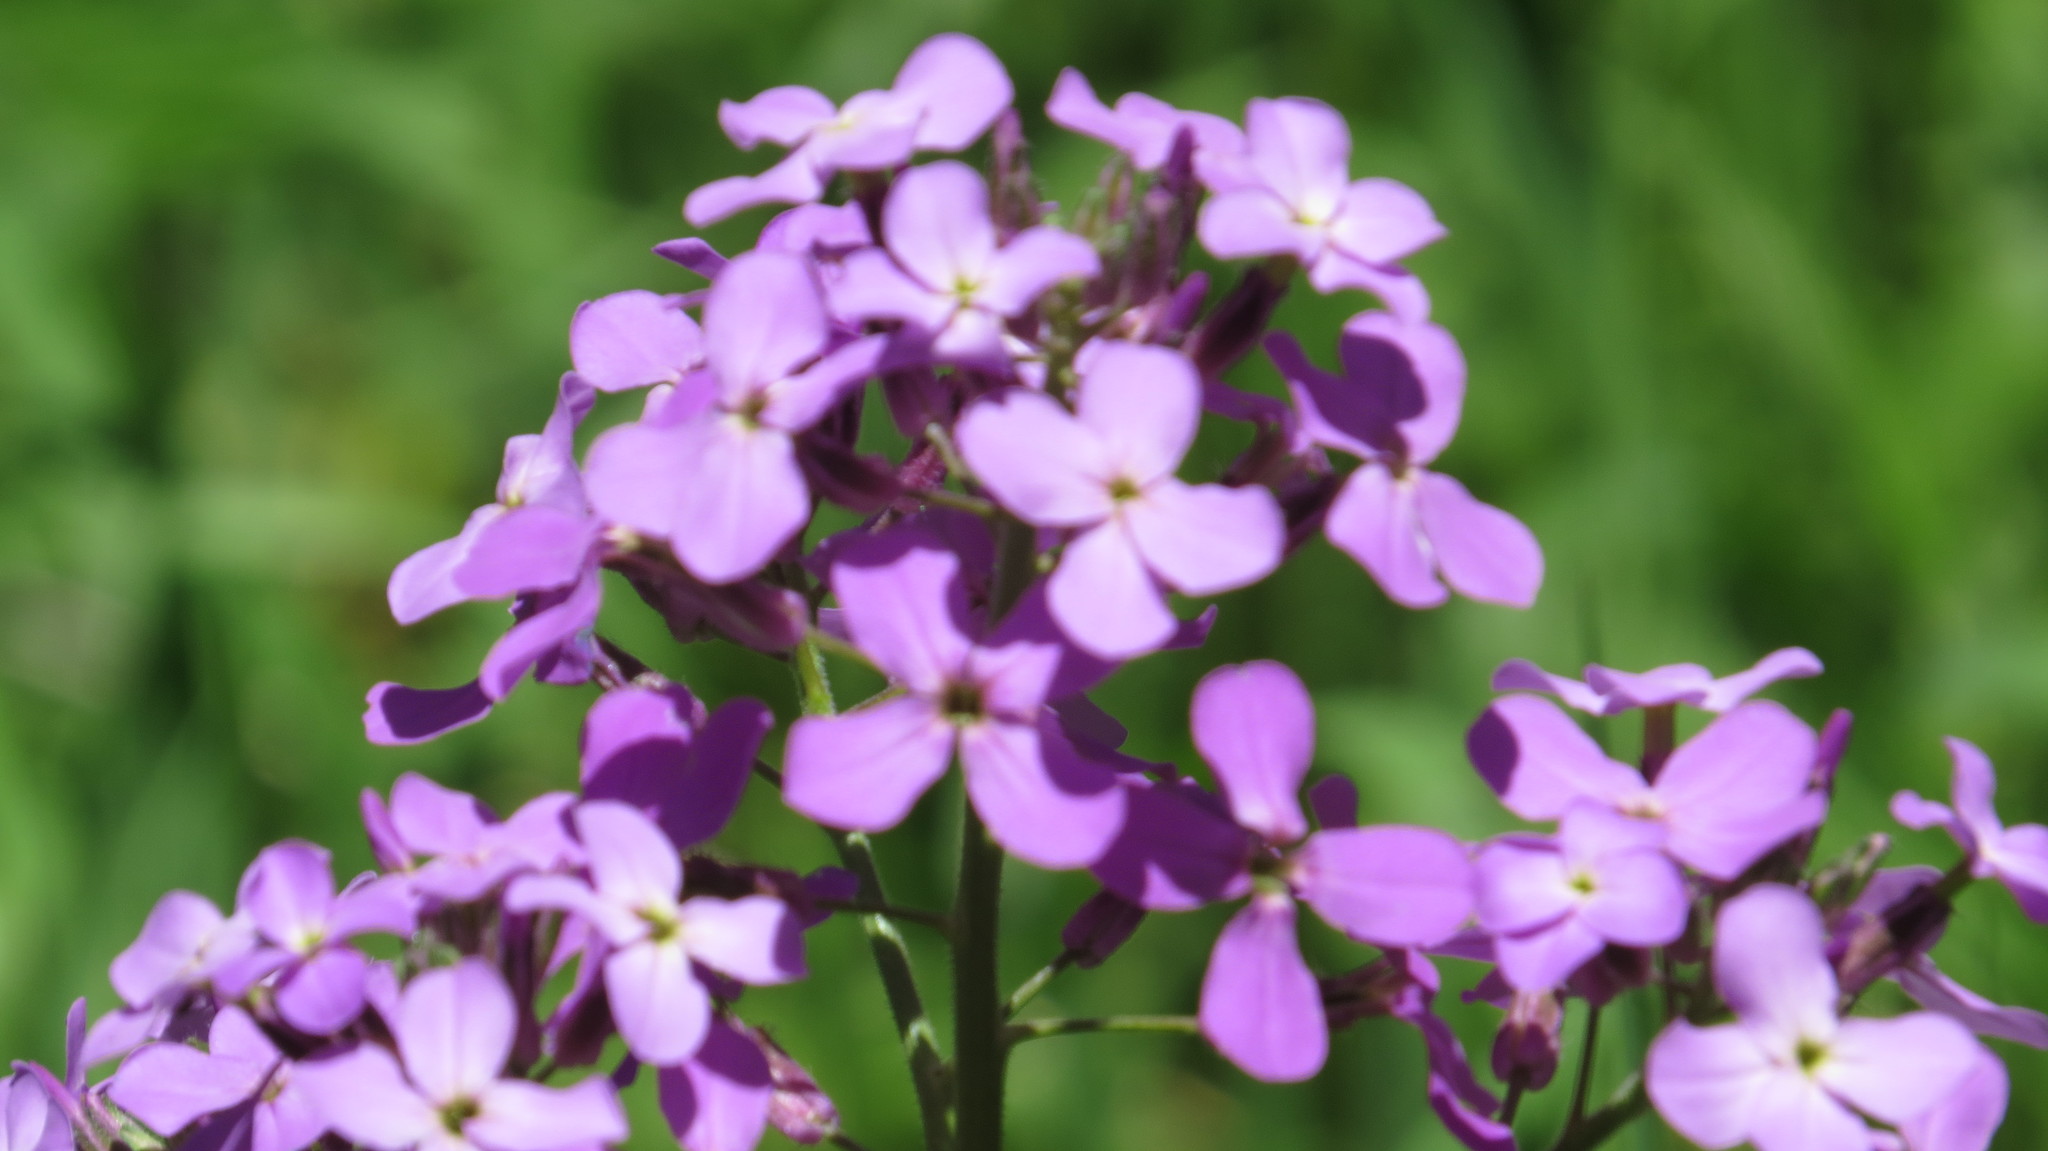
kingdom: Plantae
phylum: Tracheophyta
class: Magnoliopsida
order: Brassicales
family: Brassicaceae
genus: Hesperis
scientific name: Hesperis matronalis
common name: Dame's-violet
